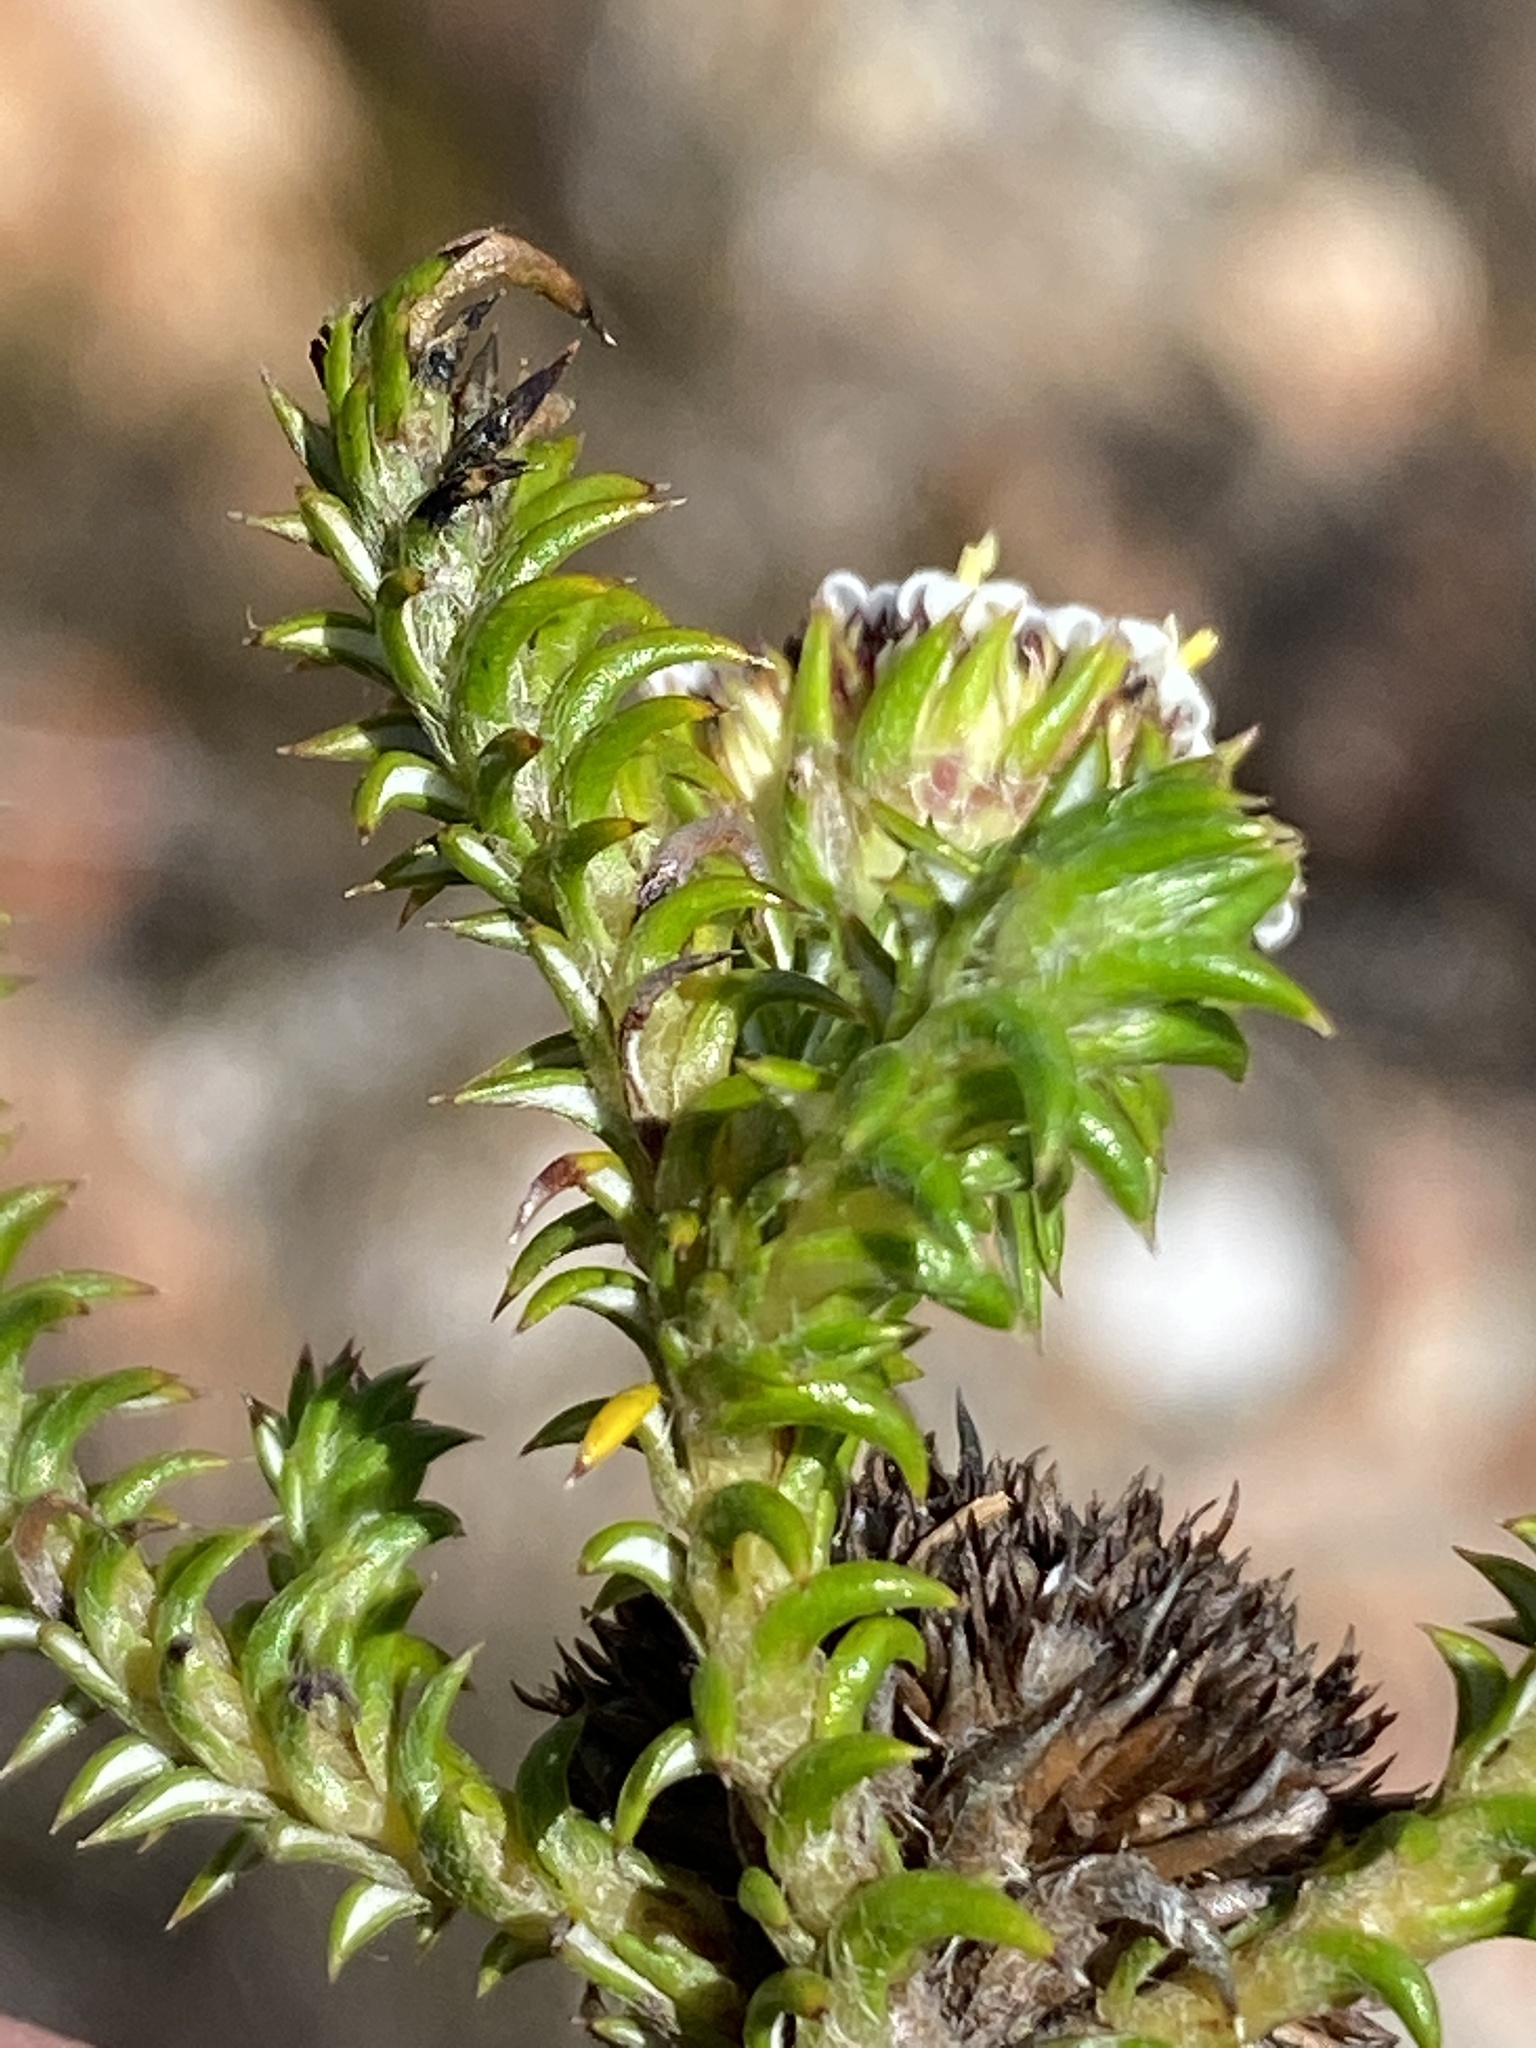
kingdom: Plantae
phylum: Tracheophyta
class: Magnoliopsida
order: Asterales
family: Asteraceae
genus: Stoebe
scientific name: Stoebe aethiopica
